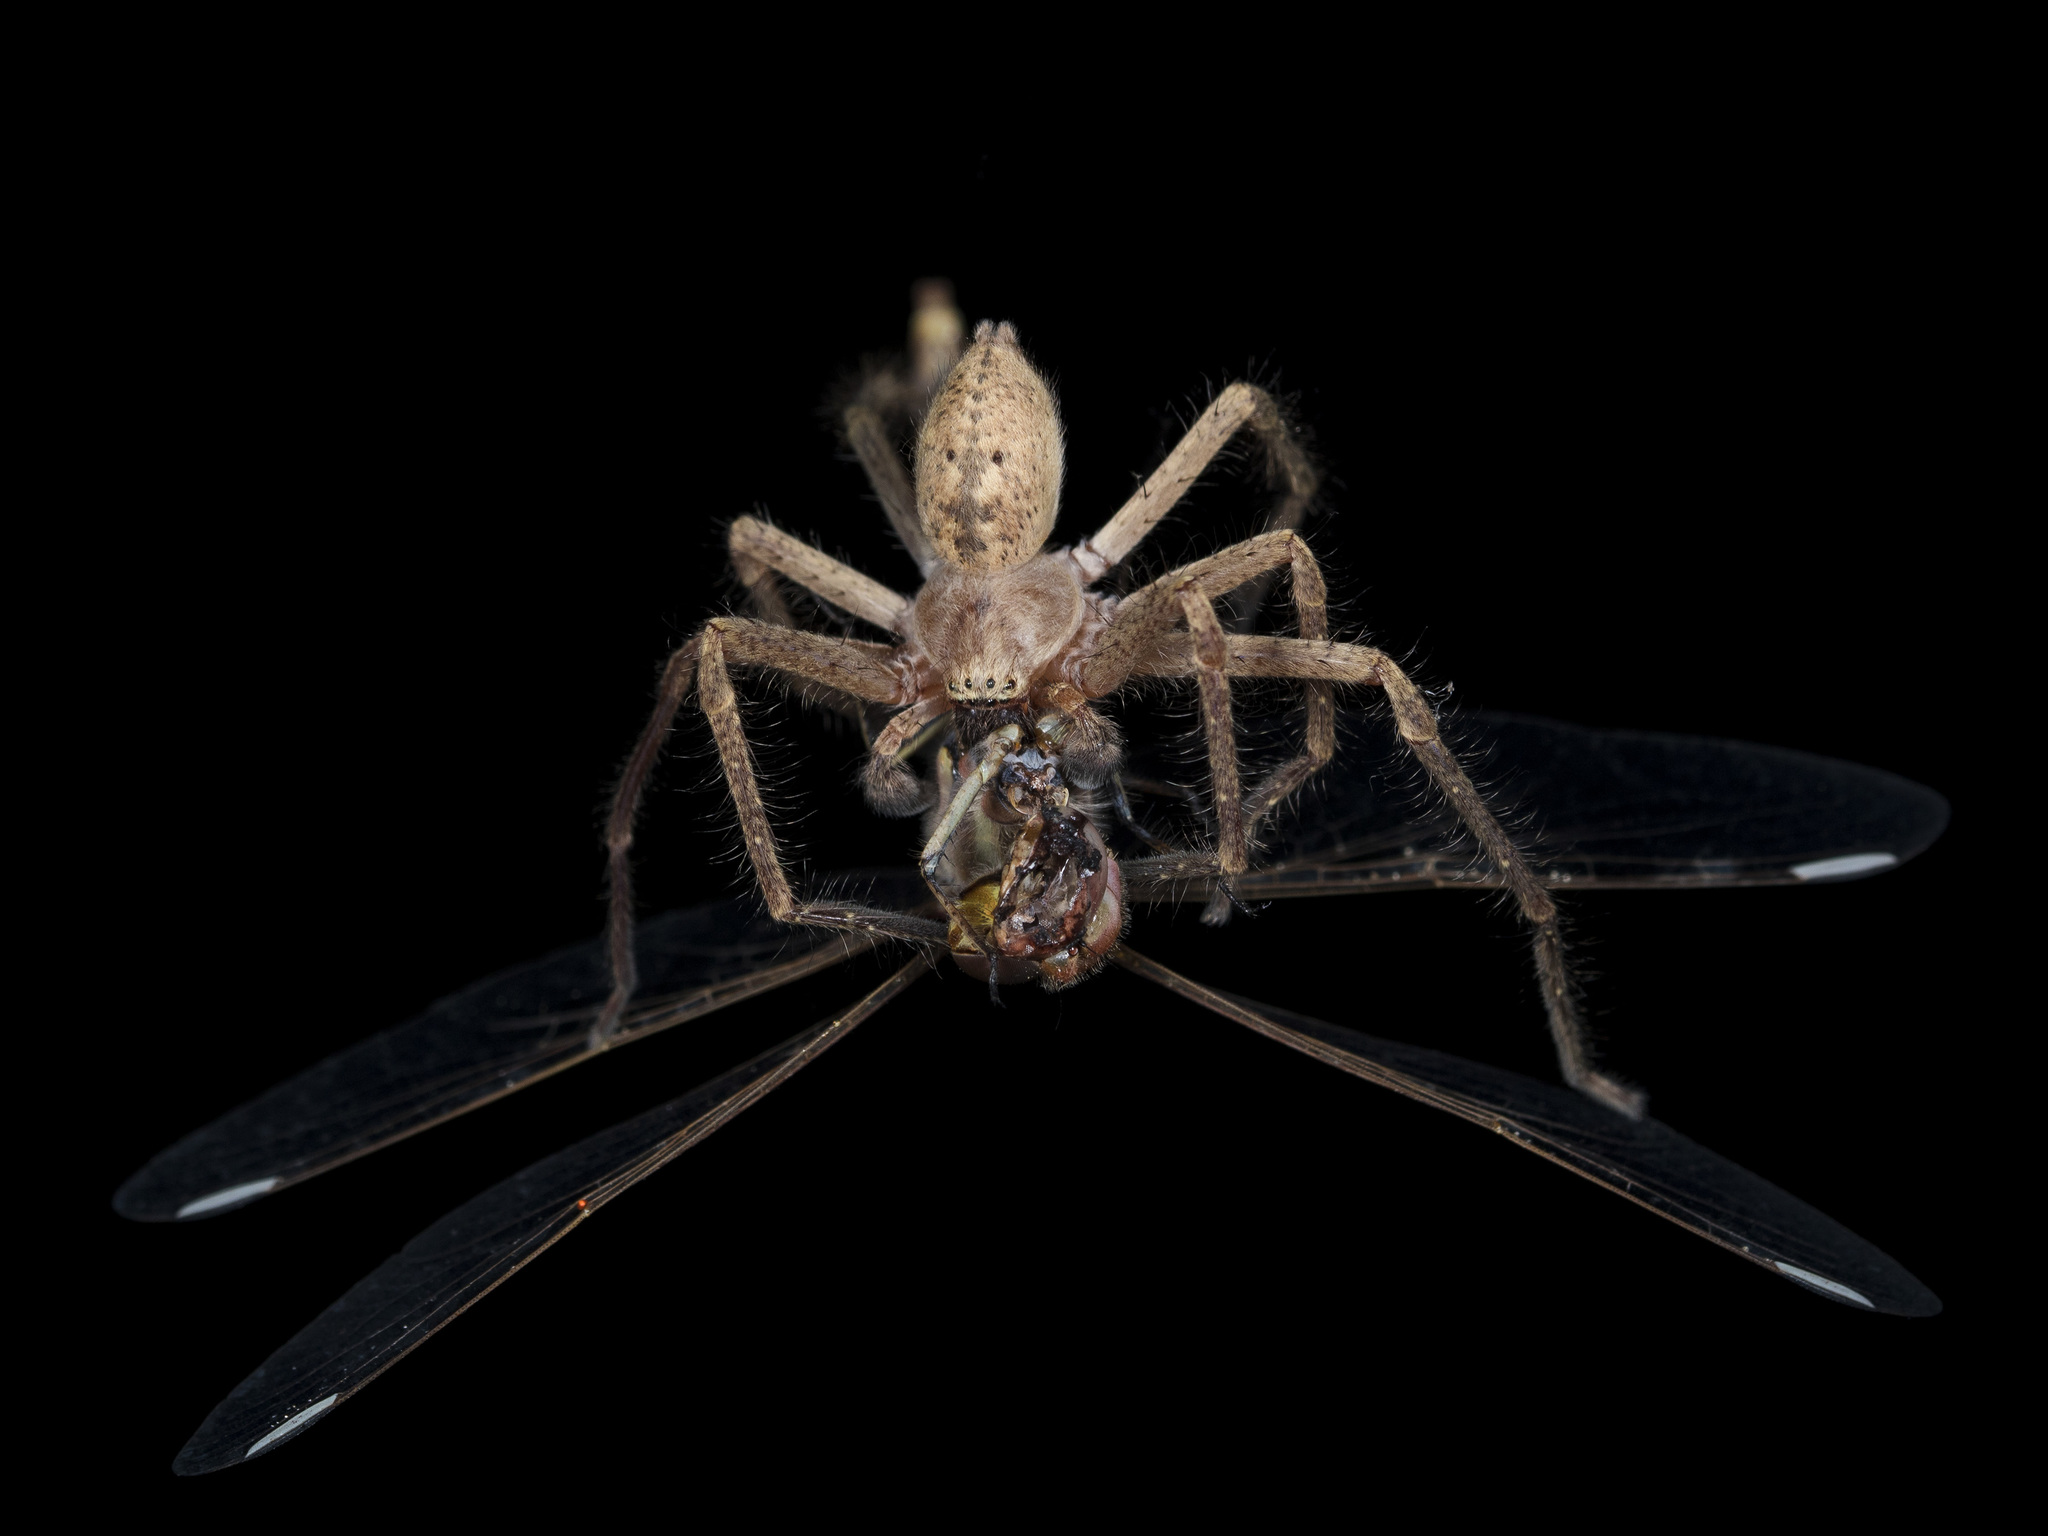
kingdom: Animalia
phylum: Arthropoda
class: Arachnida
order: Araneae
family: Sparassidae
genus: Olios
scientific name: Olios sericeus
